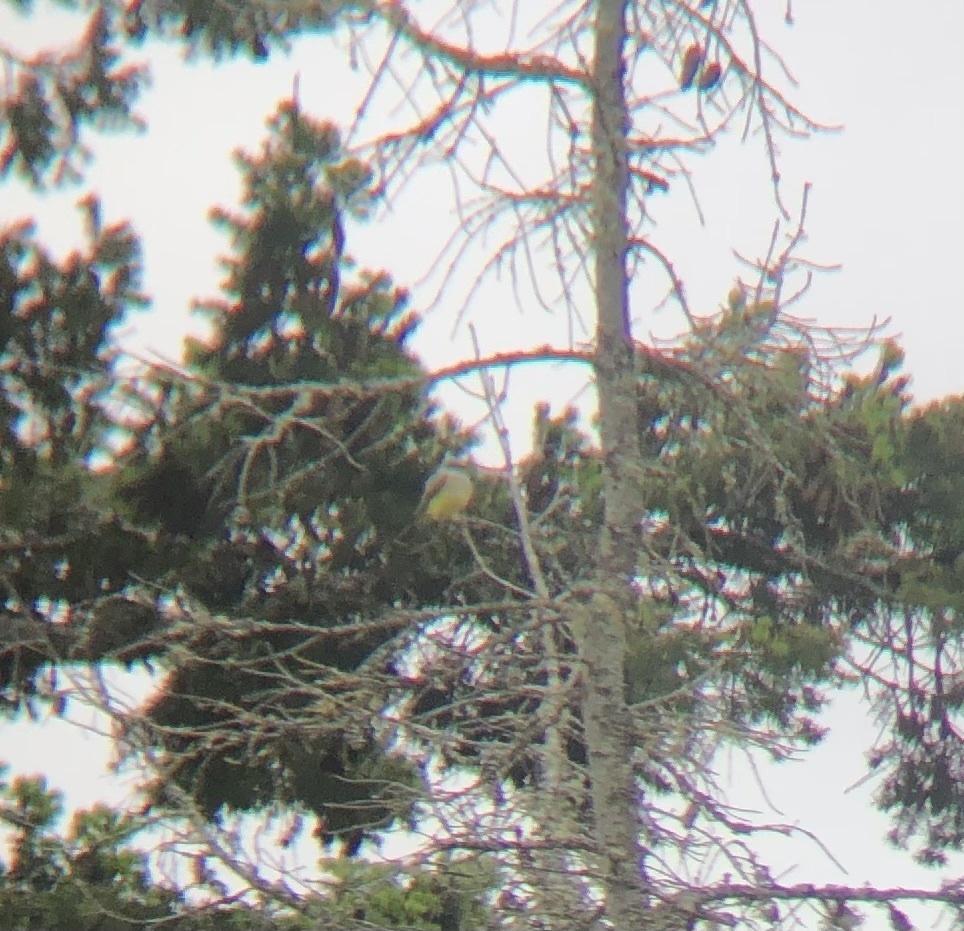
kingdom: Animalia
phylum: Chordata
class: Aves
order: Passeriformes
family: Tyrannidae
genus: Tyrannus
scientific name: Tyrannus verticalis
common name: Western kingbird
